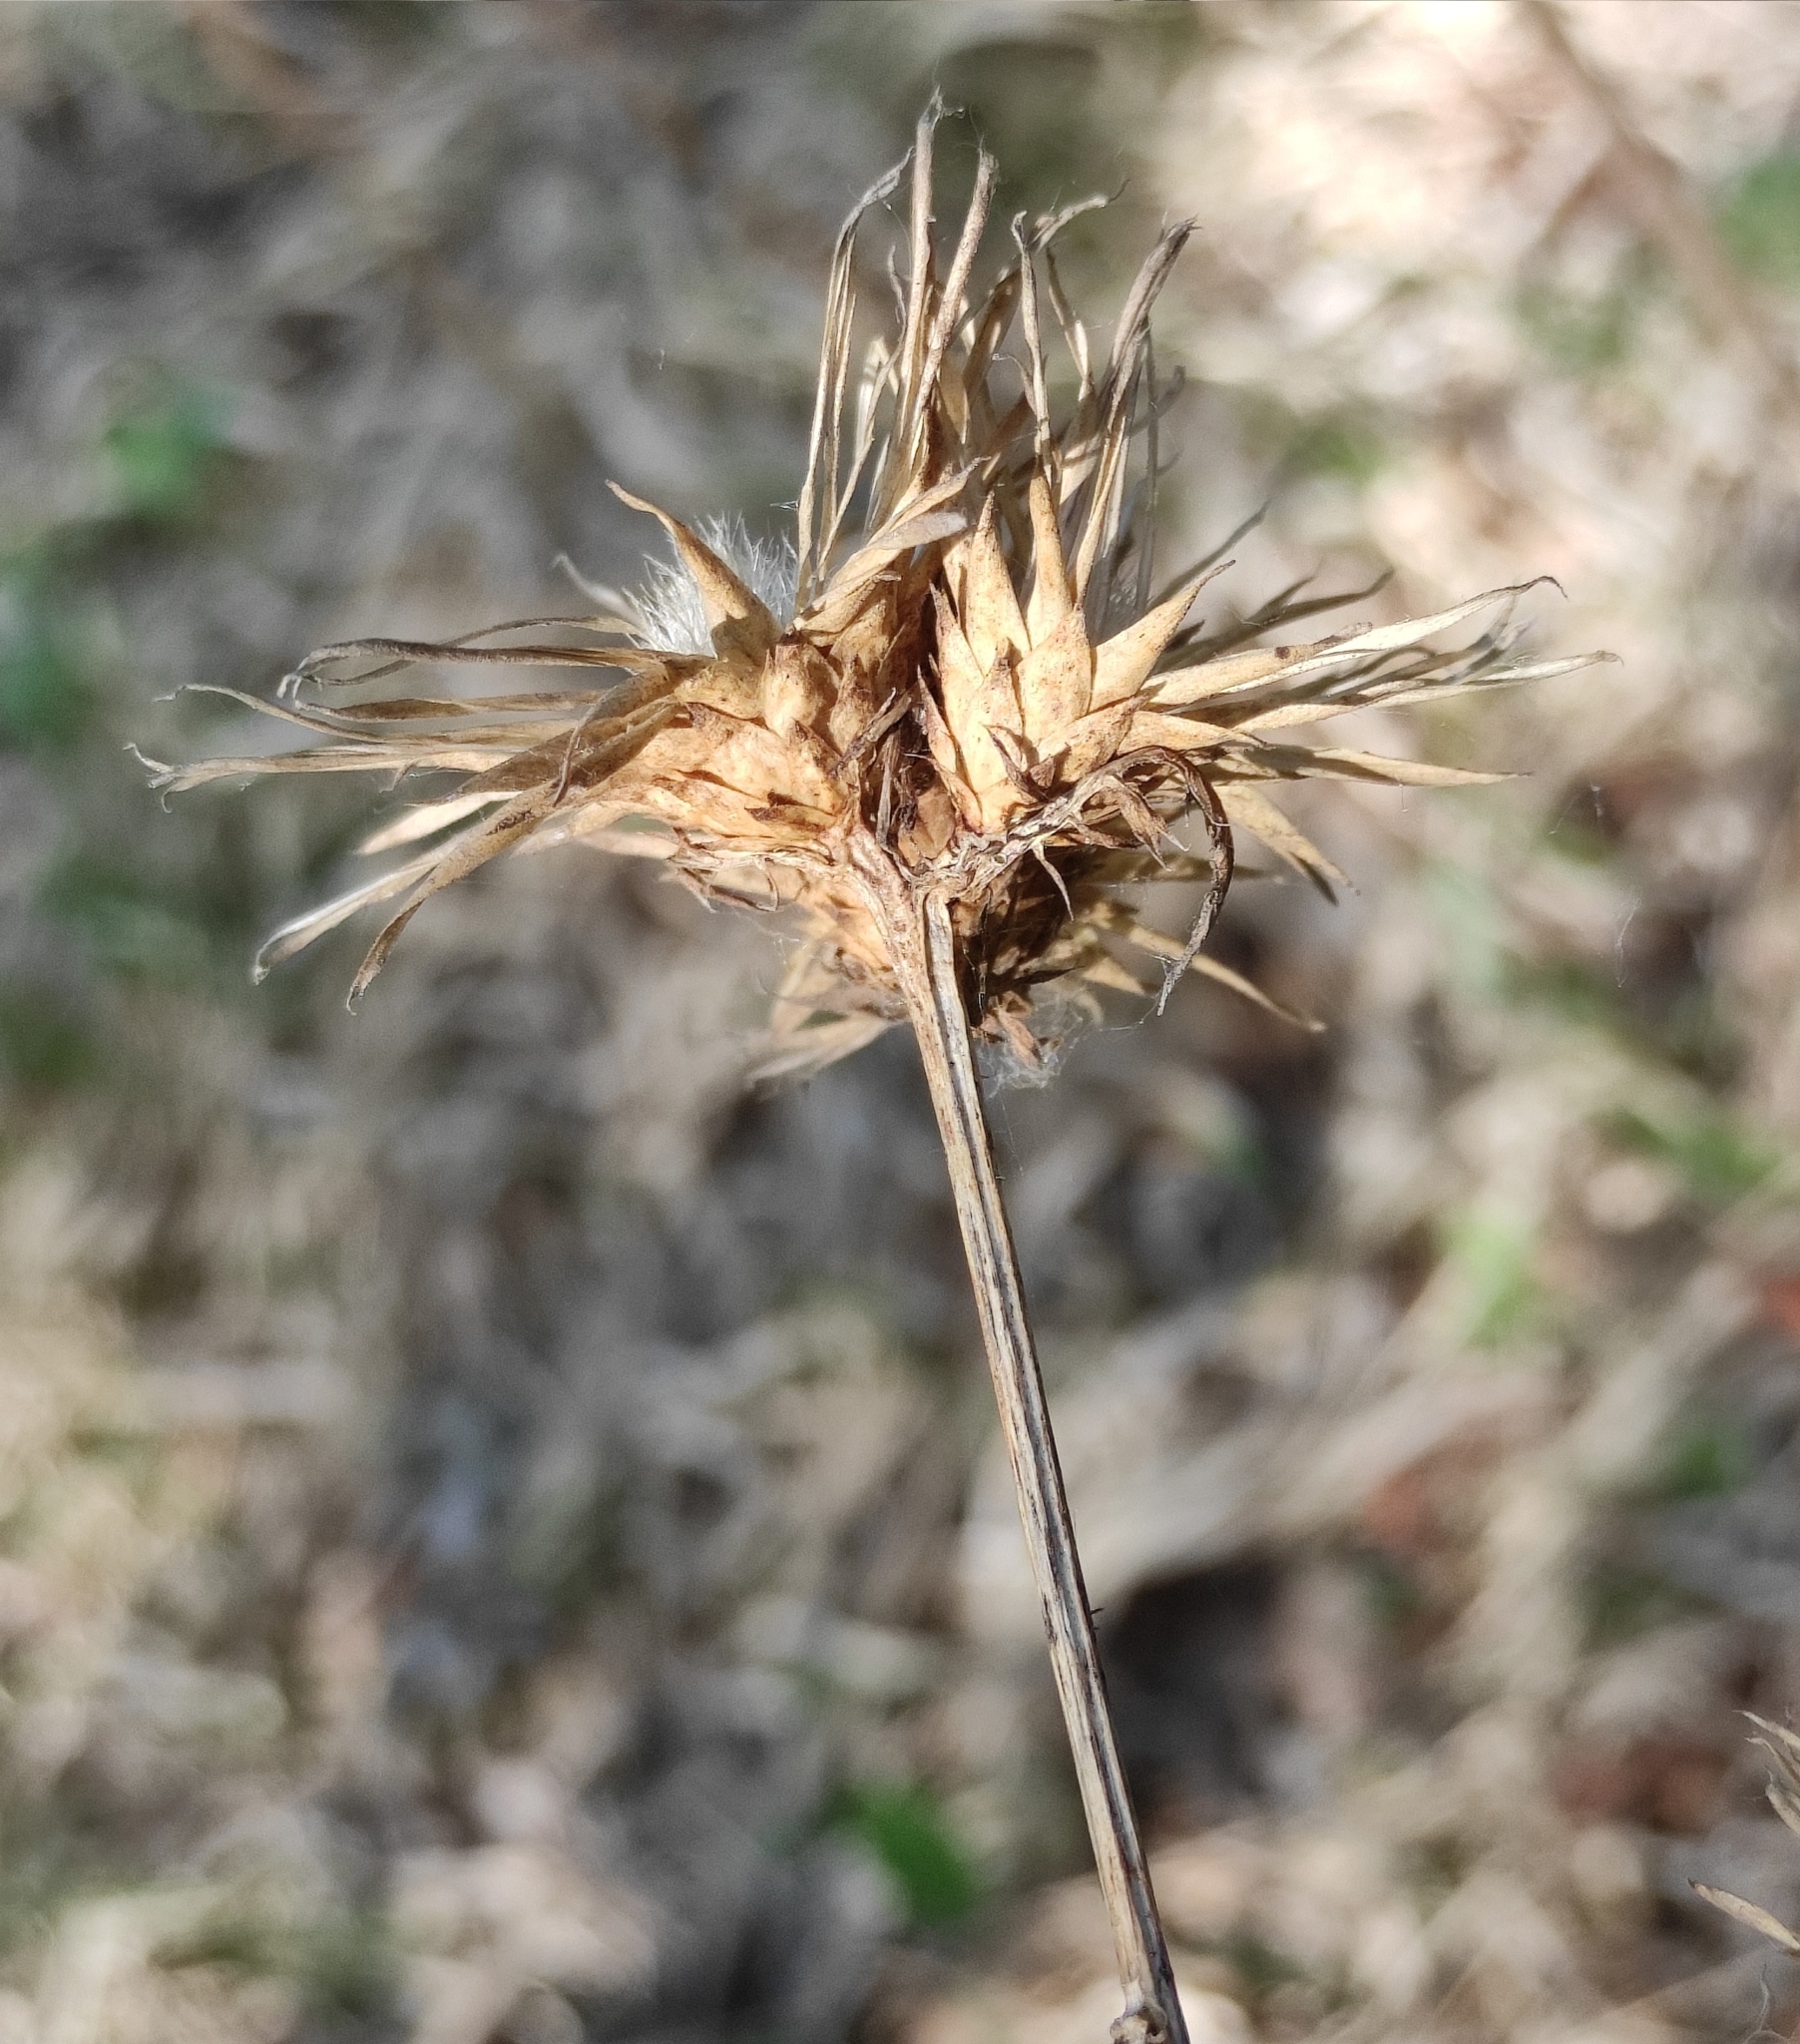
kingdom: Plantae
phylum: Tracheophyta
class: Magnoliopsida
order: Asterales
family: Asteraceae
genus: Serratula
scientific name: Serratula coronata
